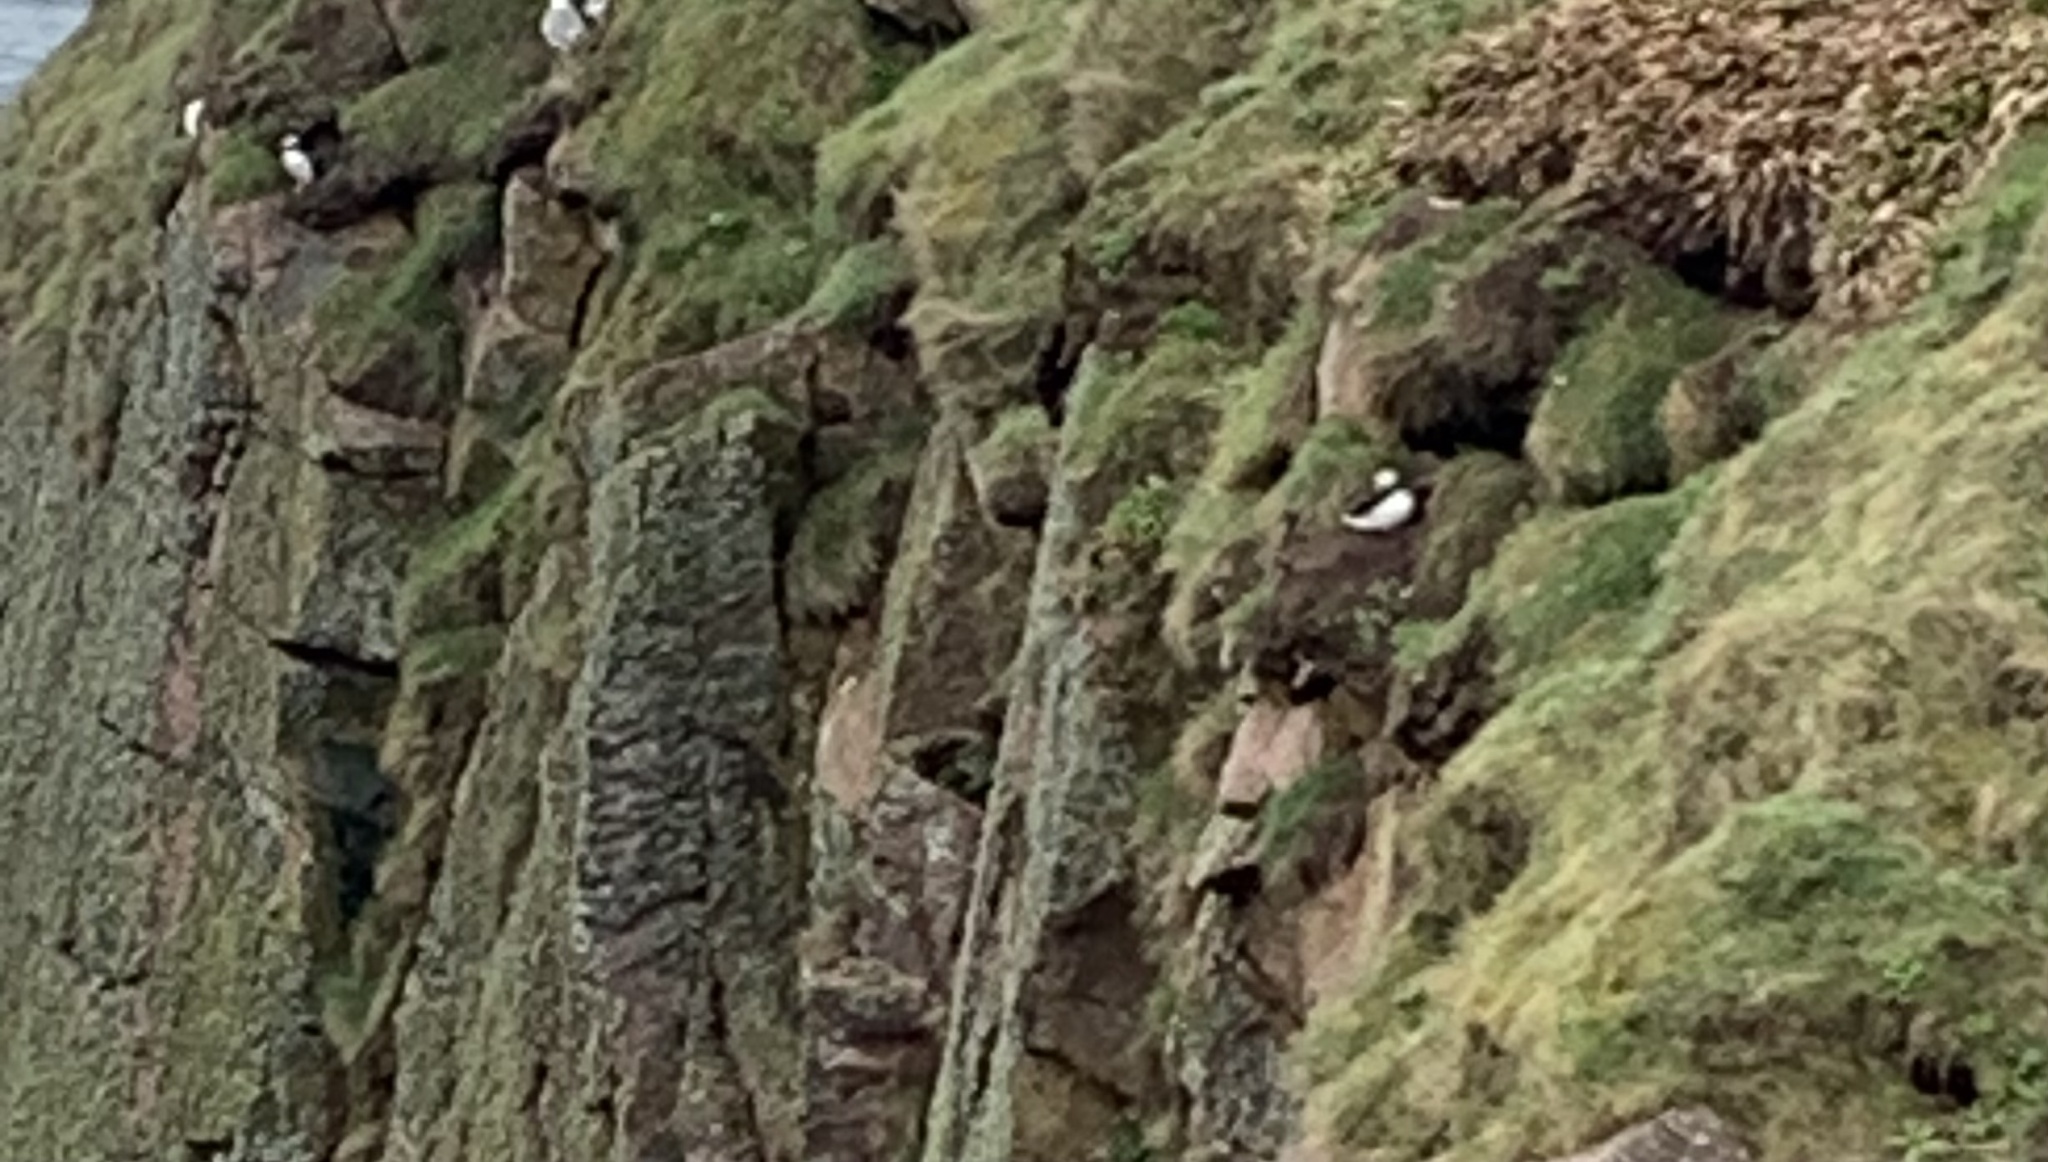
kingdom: Animalia
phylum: Chordata
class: Aves
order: Charadriiformes
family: Alcidae
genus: Fratercula
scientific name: Fratercula arctica
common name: Atlantic puffin
